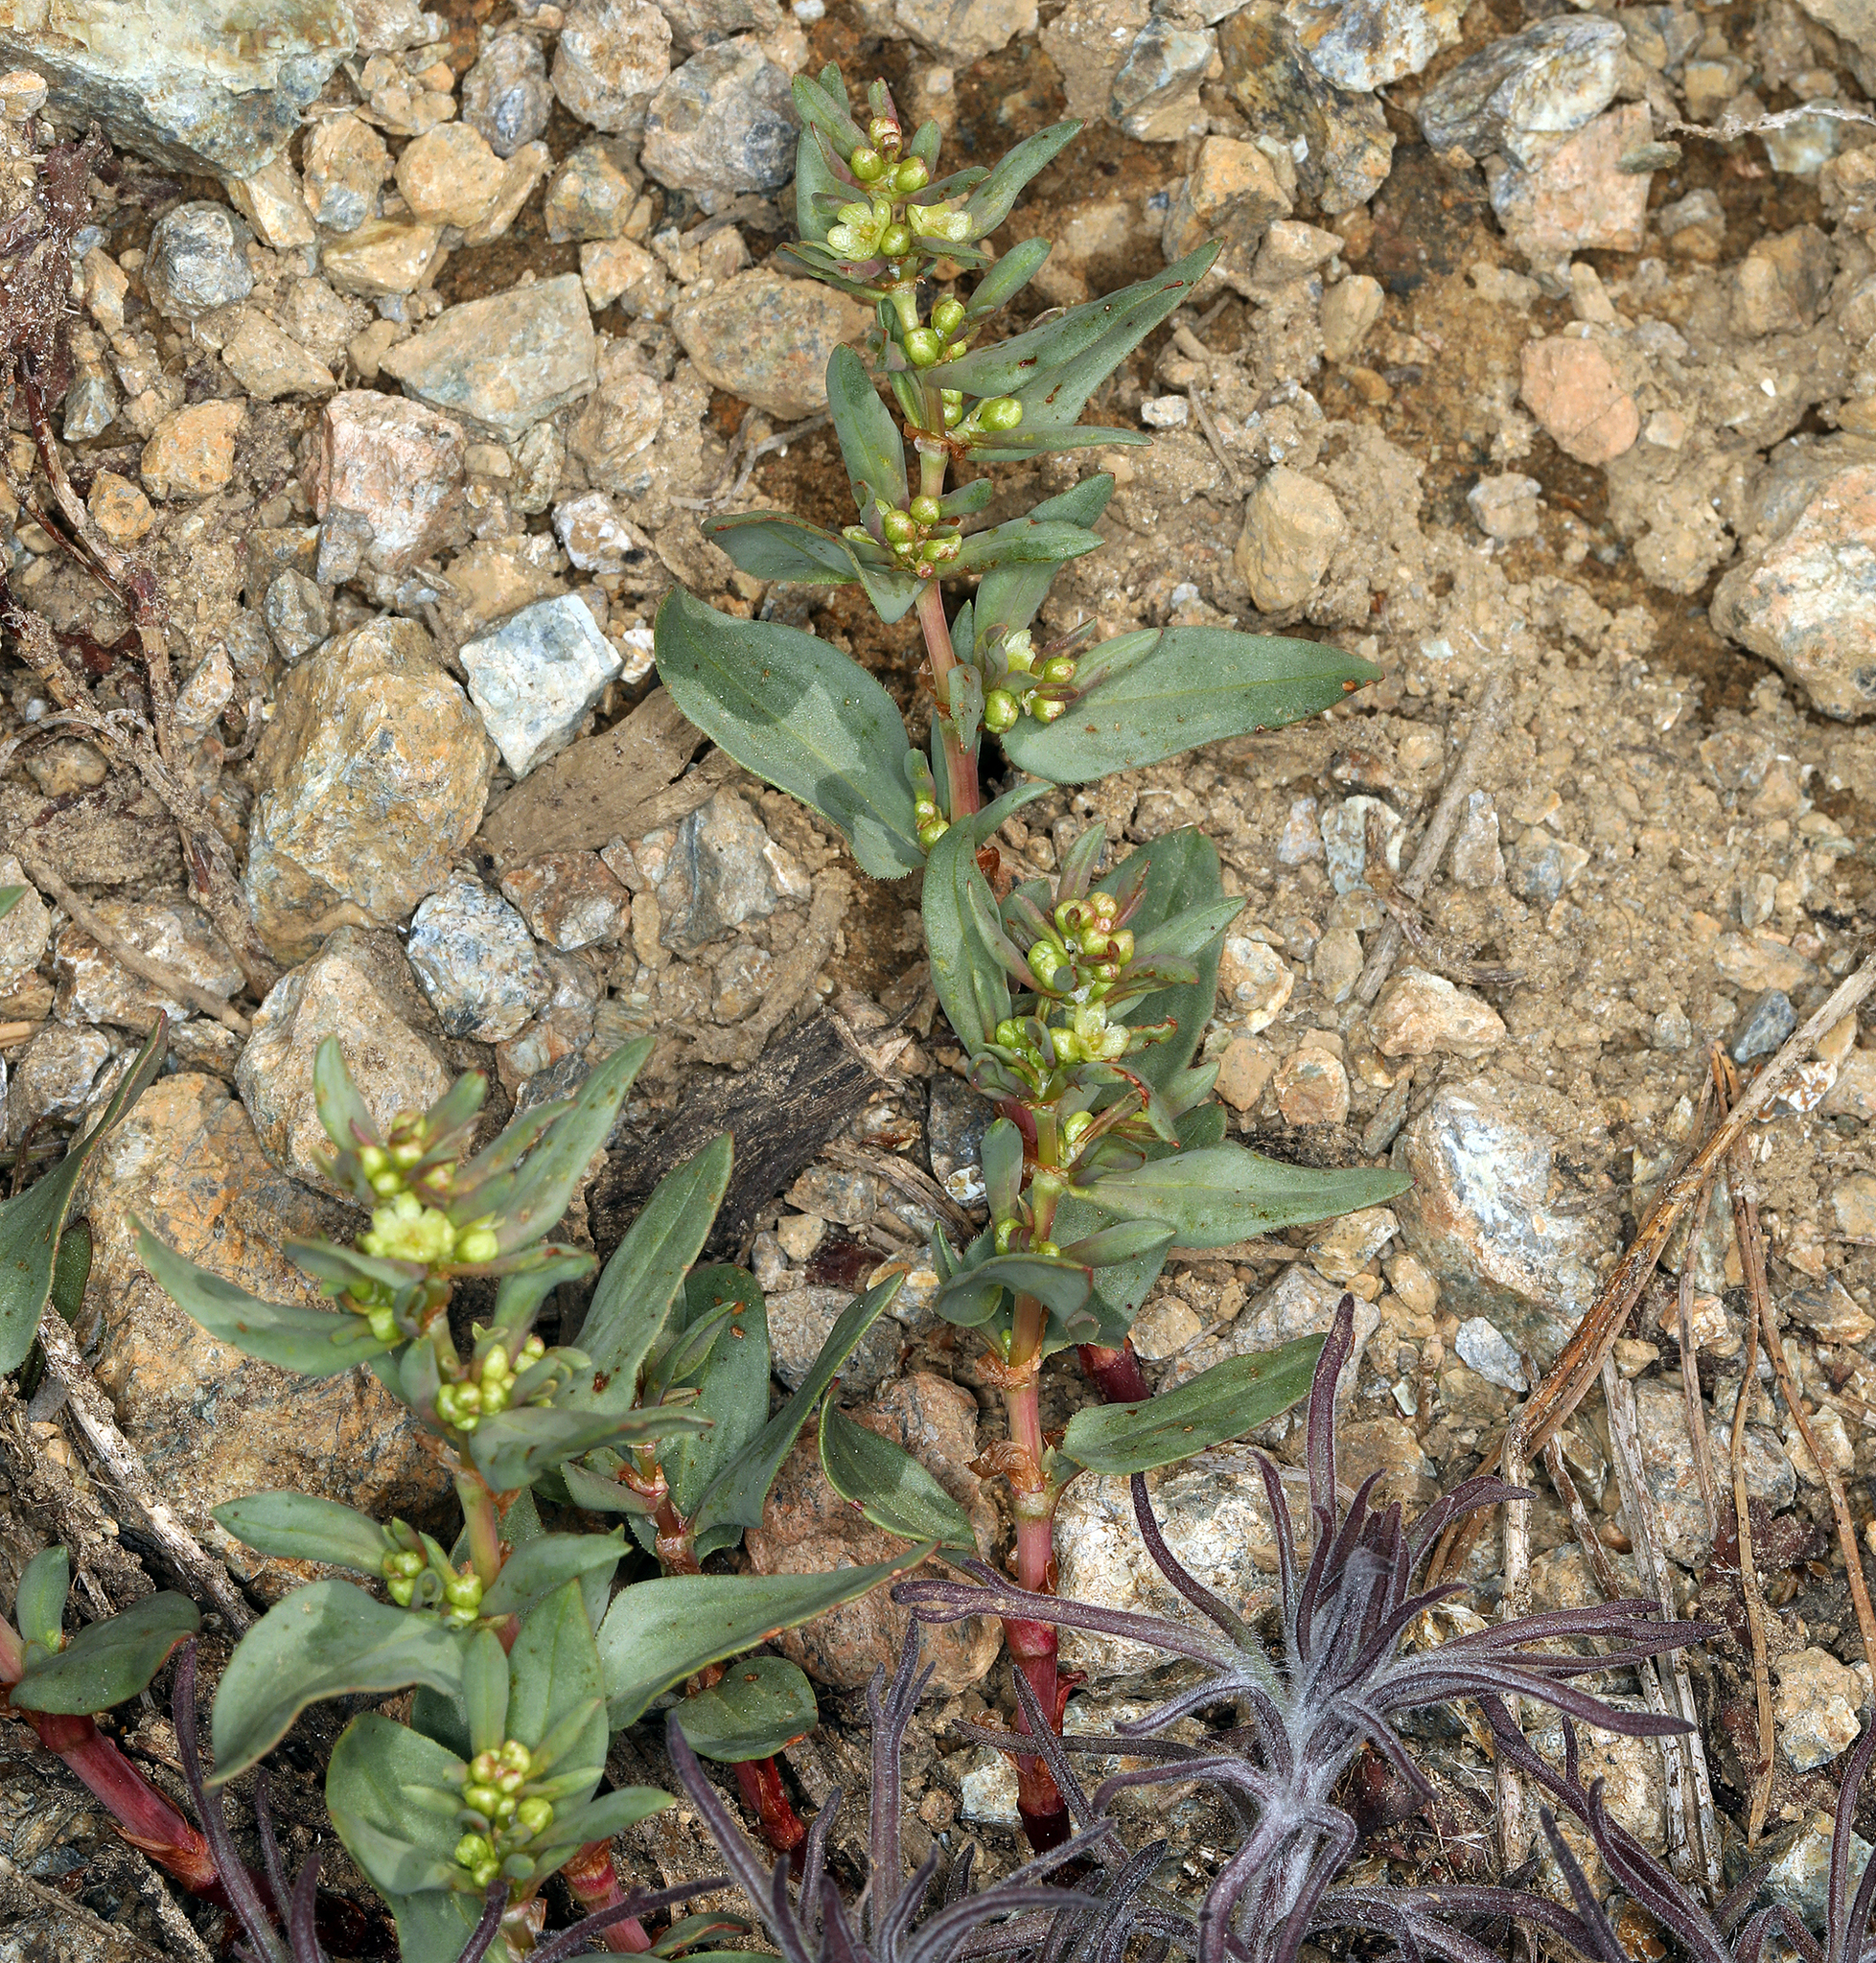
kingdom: Plantae
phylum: Tracheophyta
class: Magnoliopsida
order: Caryophyllales
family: Polygonaceae
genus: Koenigia
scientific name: Koenigia davisiae
